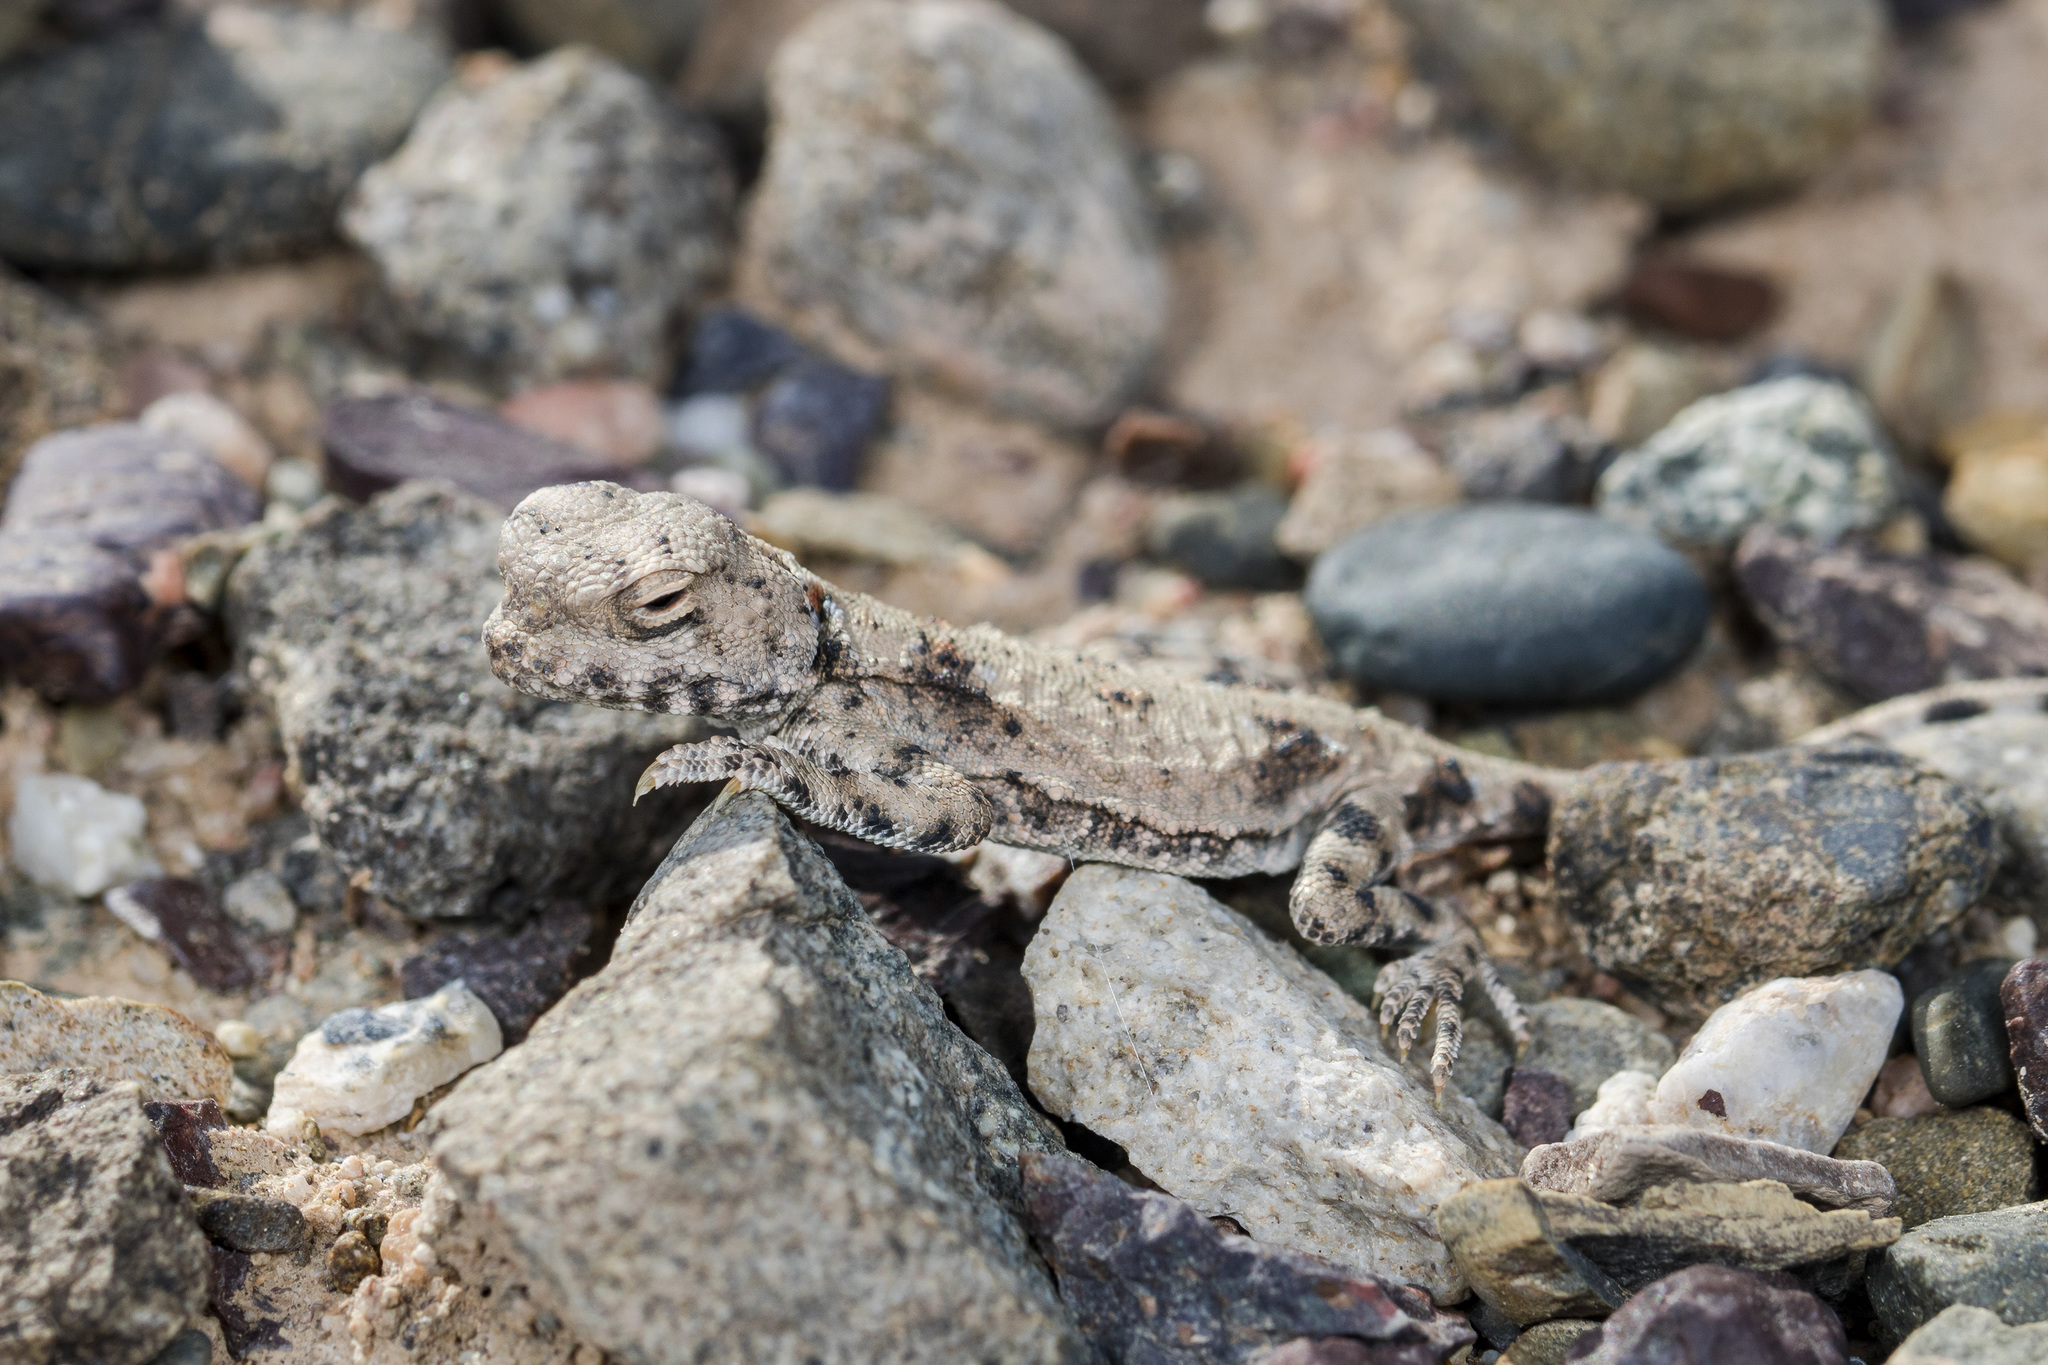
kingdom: Animalia
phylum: Chordata
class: Squamata
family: Agamidae
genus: Phrynocephalus
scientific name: Phrynocephalus helioscopus
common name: Sunwatcher
